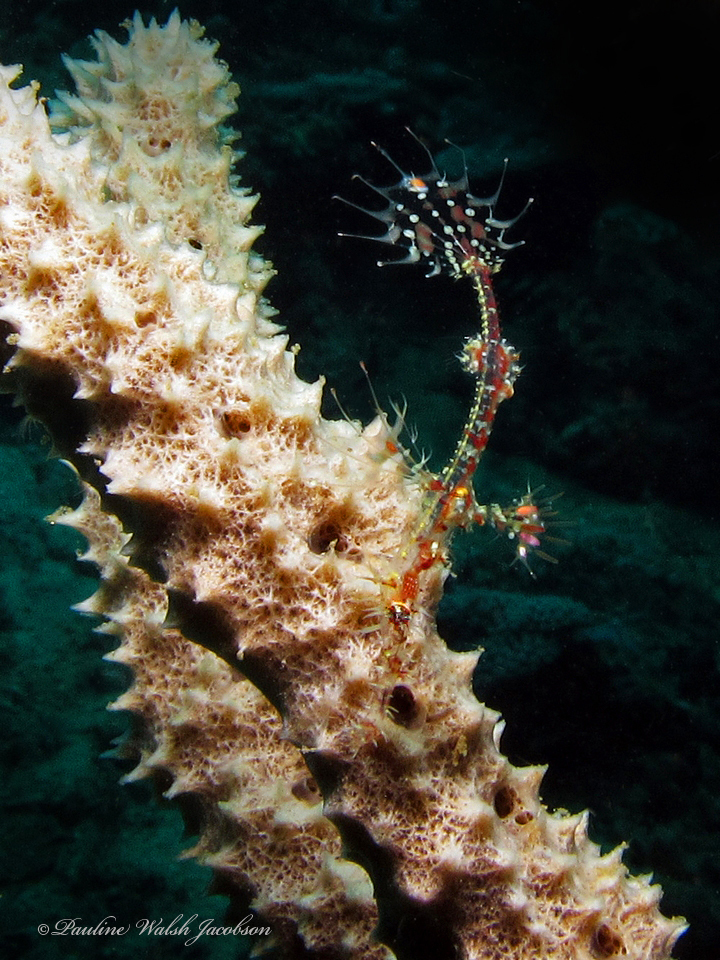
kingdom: Animalia
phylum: Chordata
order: Syngnathiformes
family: Solenostomidae
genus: Solenostomus
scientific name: Solenostomus paradoxus
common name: Ghost pipefish
